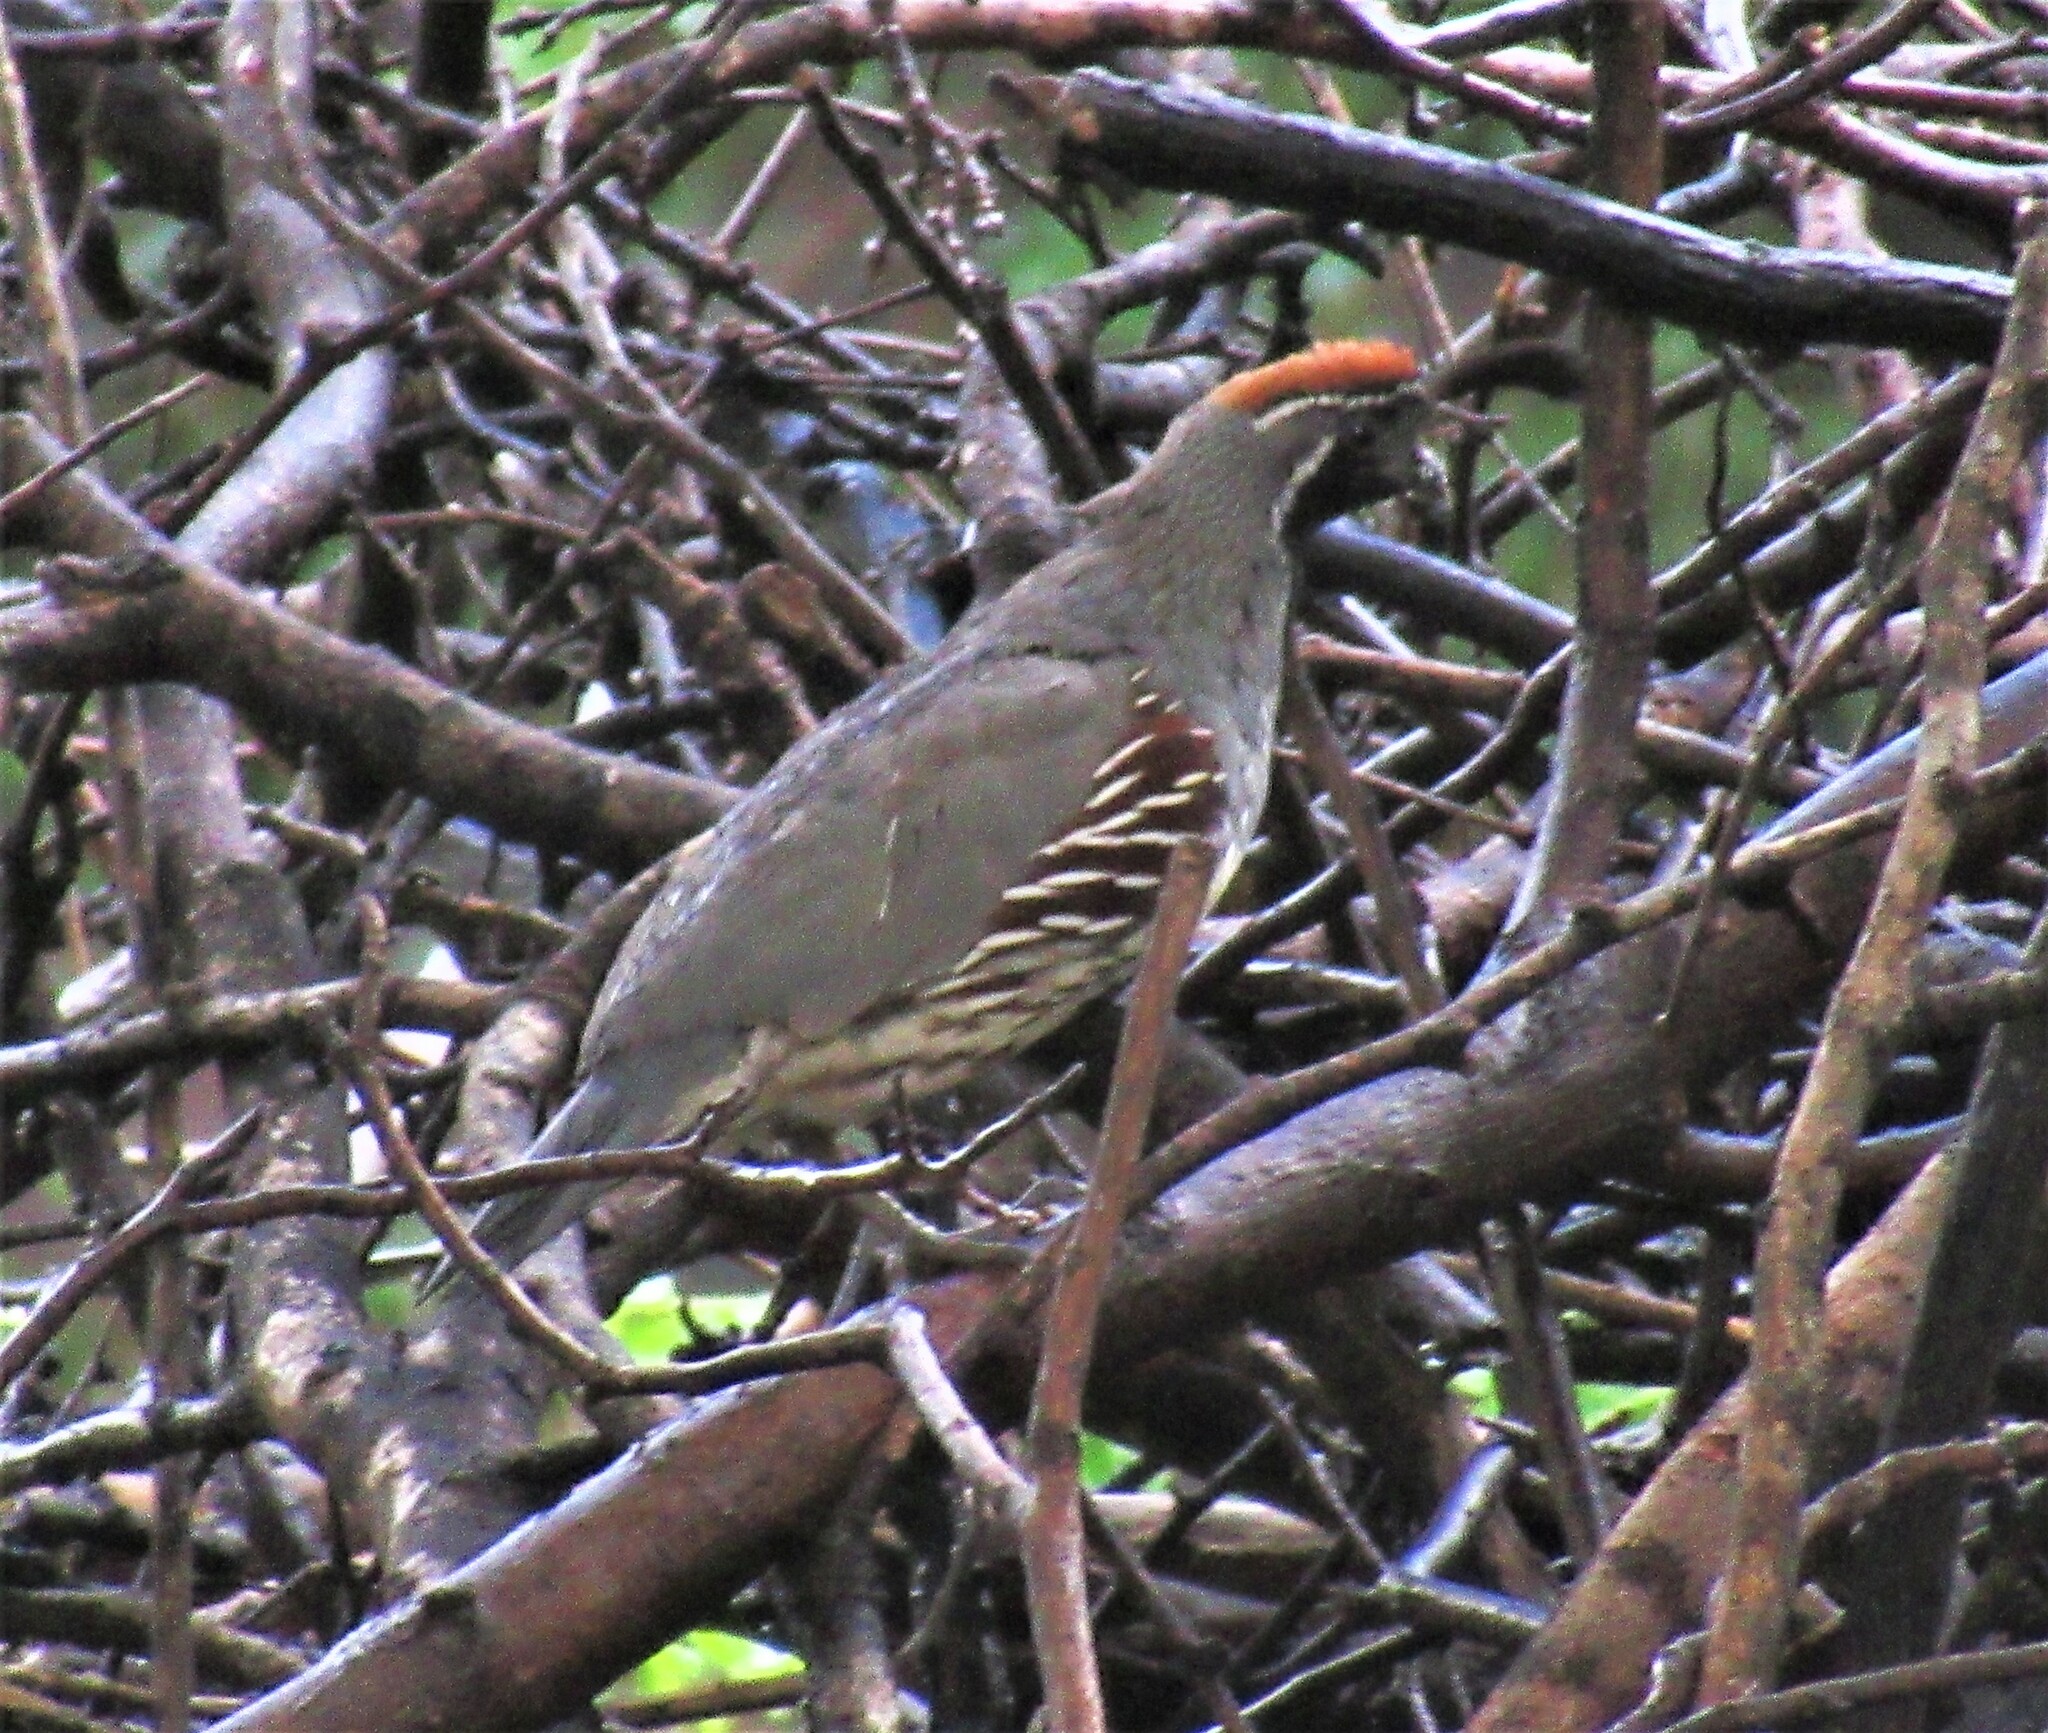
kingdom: Animalia
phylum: Chordata
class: Aves
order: Galliformes
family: Odontophoridae
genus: Callipepla
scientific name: Callipepla gambelii
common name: Gambel's quail
